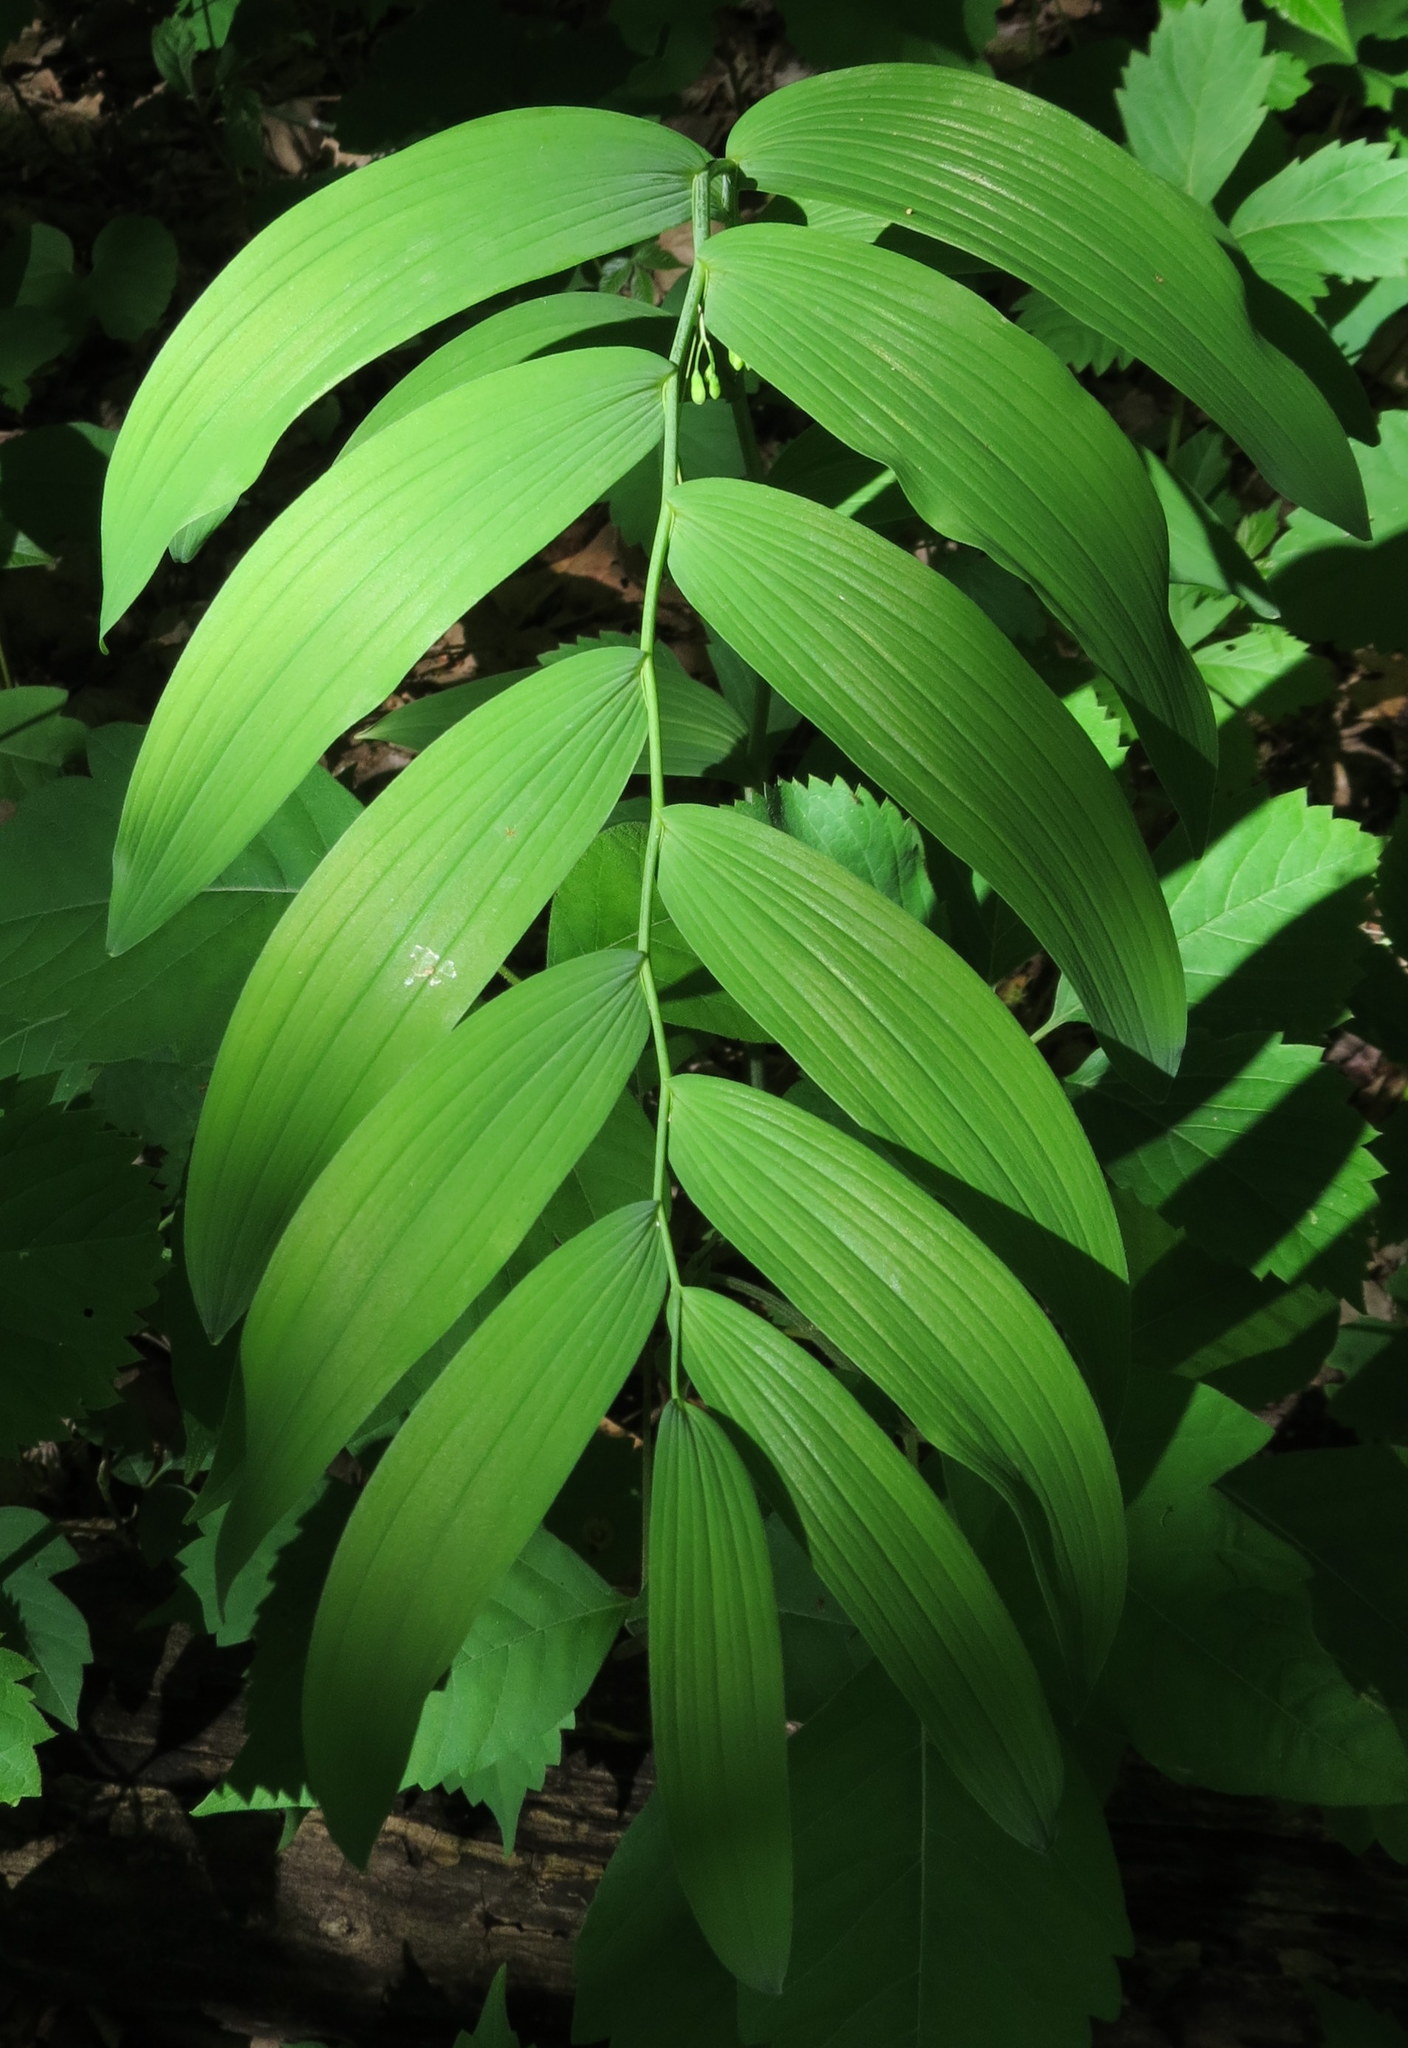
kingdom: Plantae
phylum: Tracheophyta
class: Liliopsida
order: Asparagales
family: Asparagaceae
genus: Polygonatum
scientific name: Polygonatum biflorum
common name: American solomon's-seal
